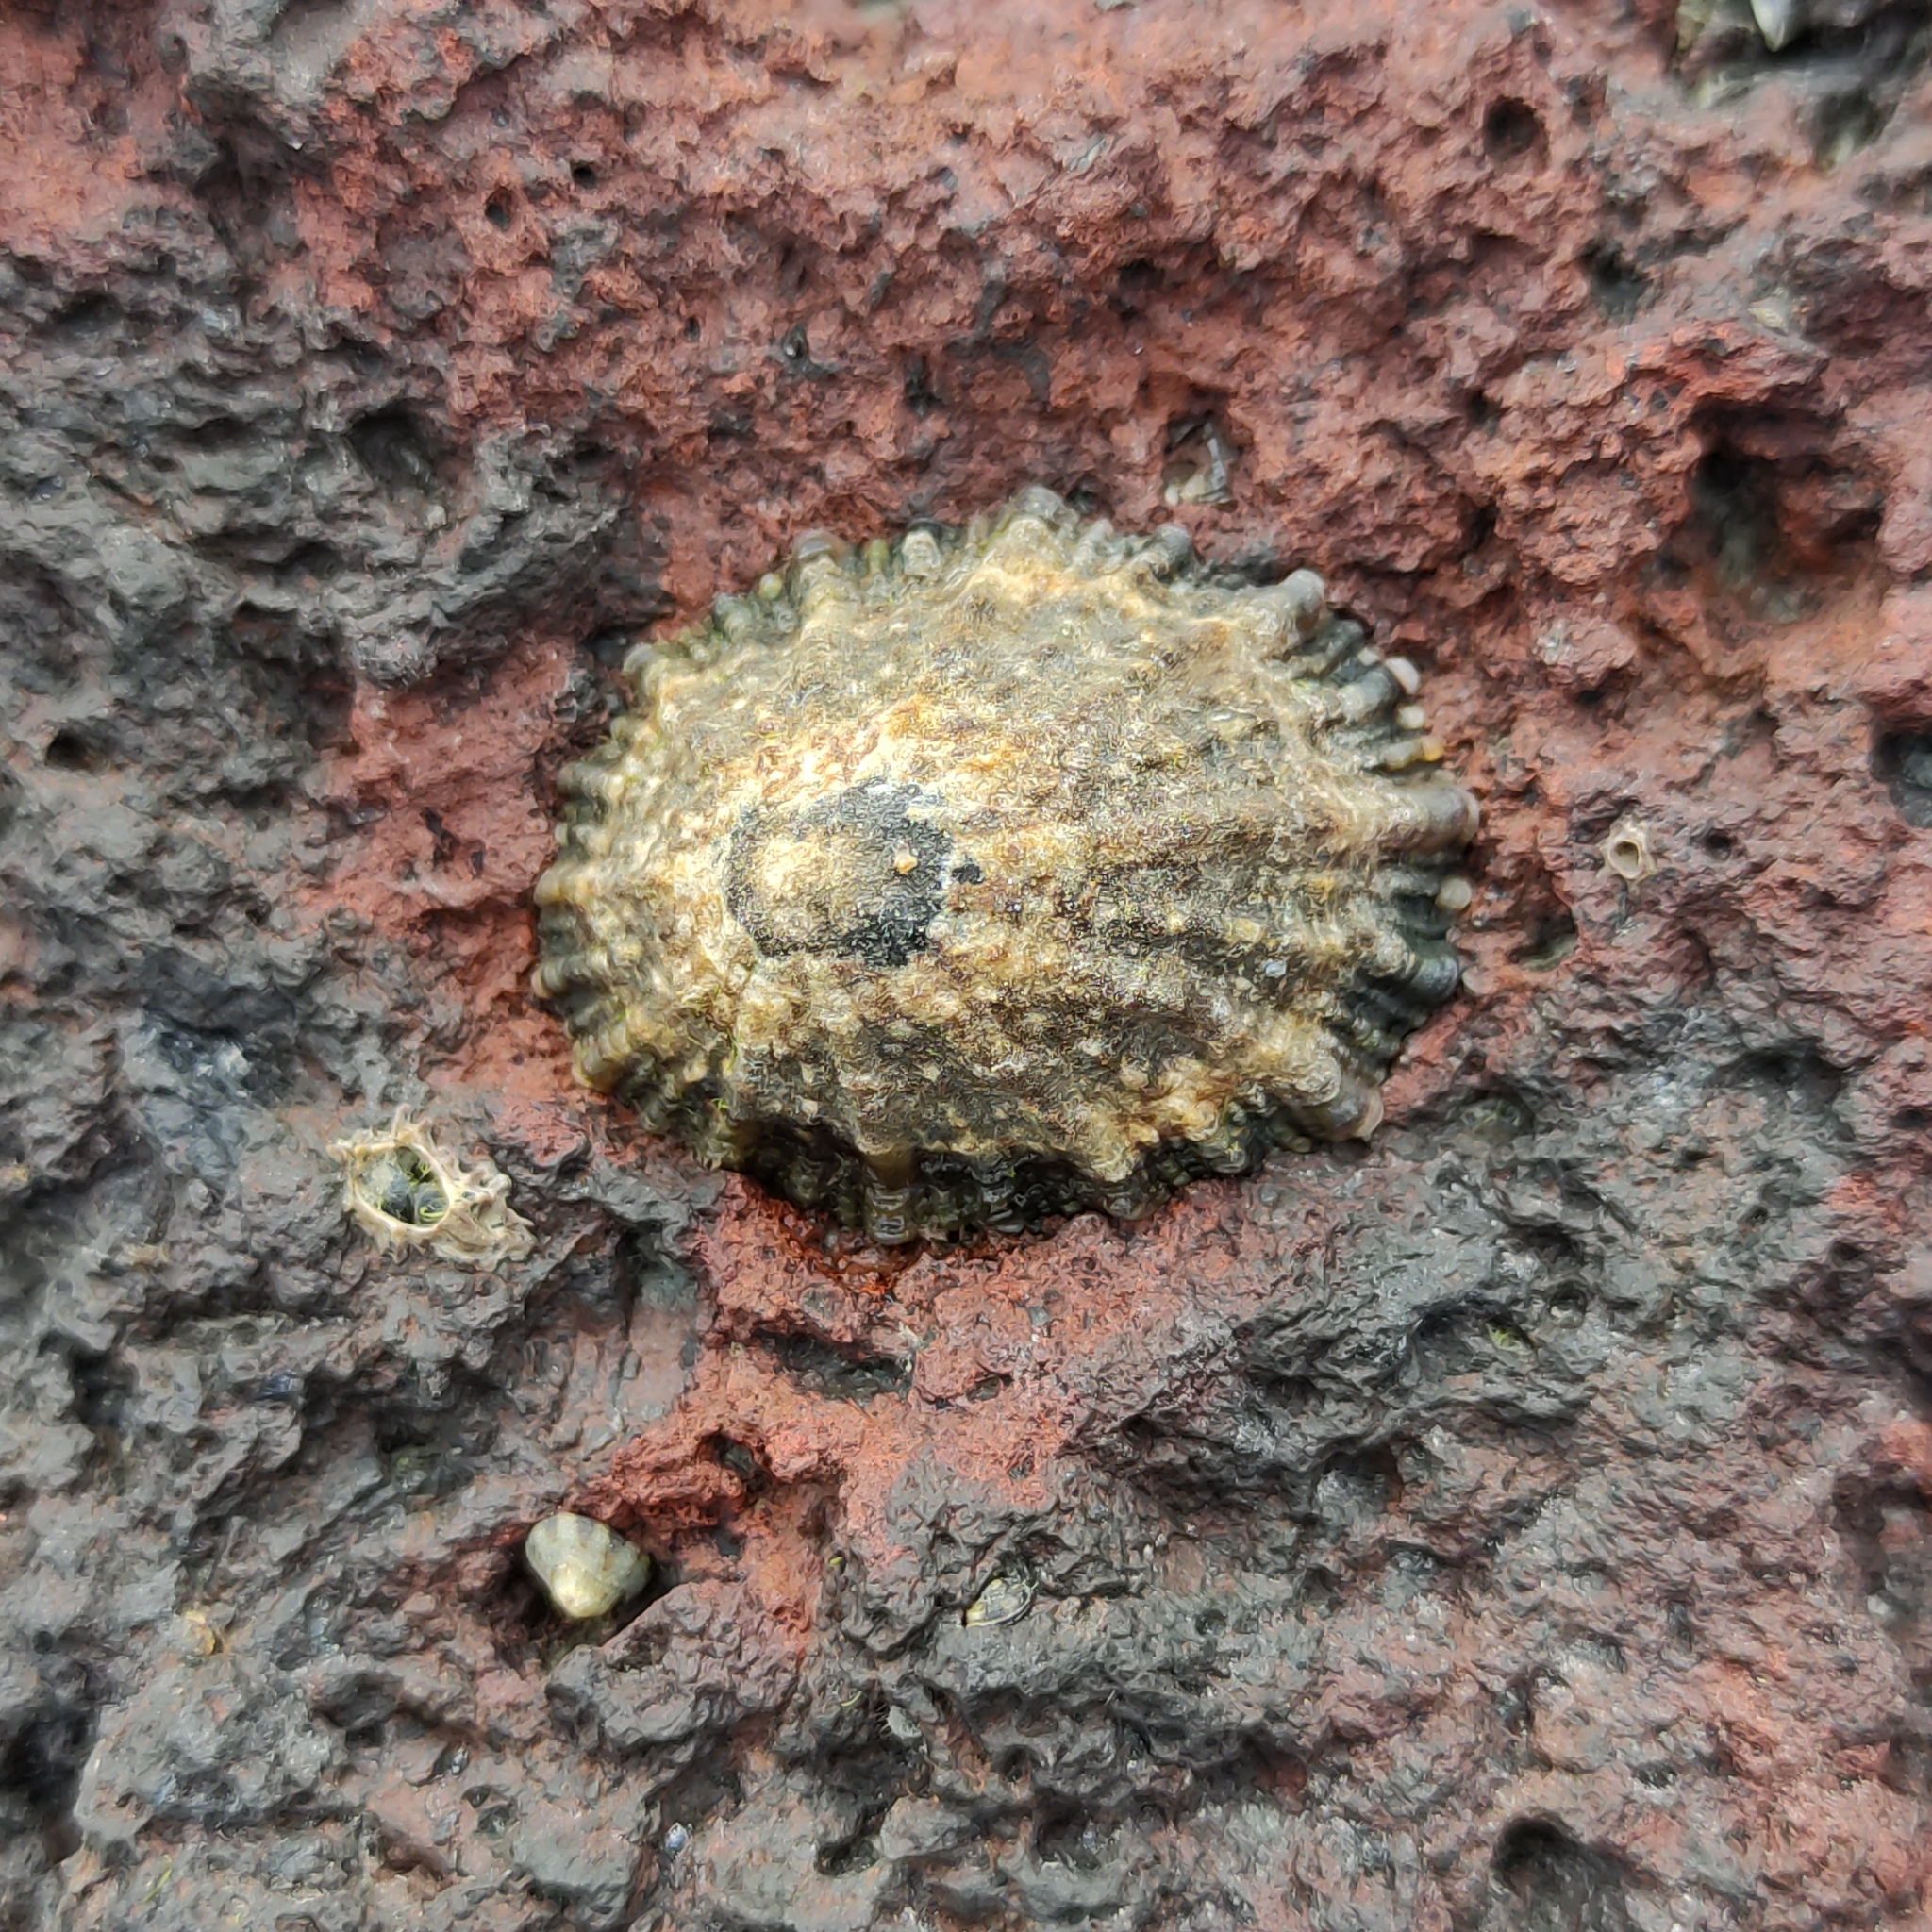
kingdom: Animalia
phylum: Mollusca
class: Gastropoda
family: Nacellidae
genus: Cellana
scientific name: Cellana ornata
